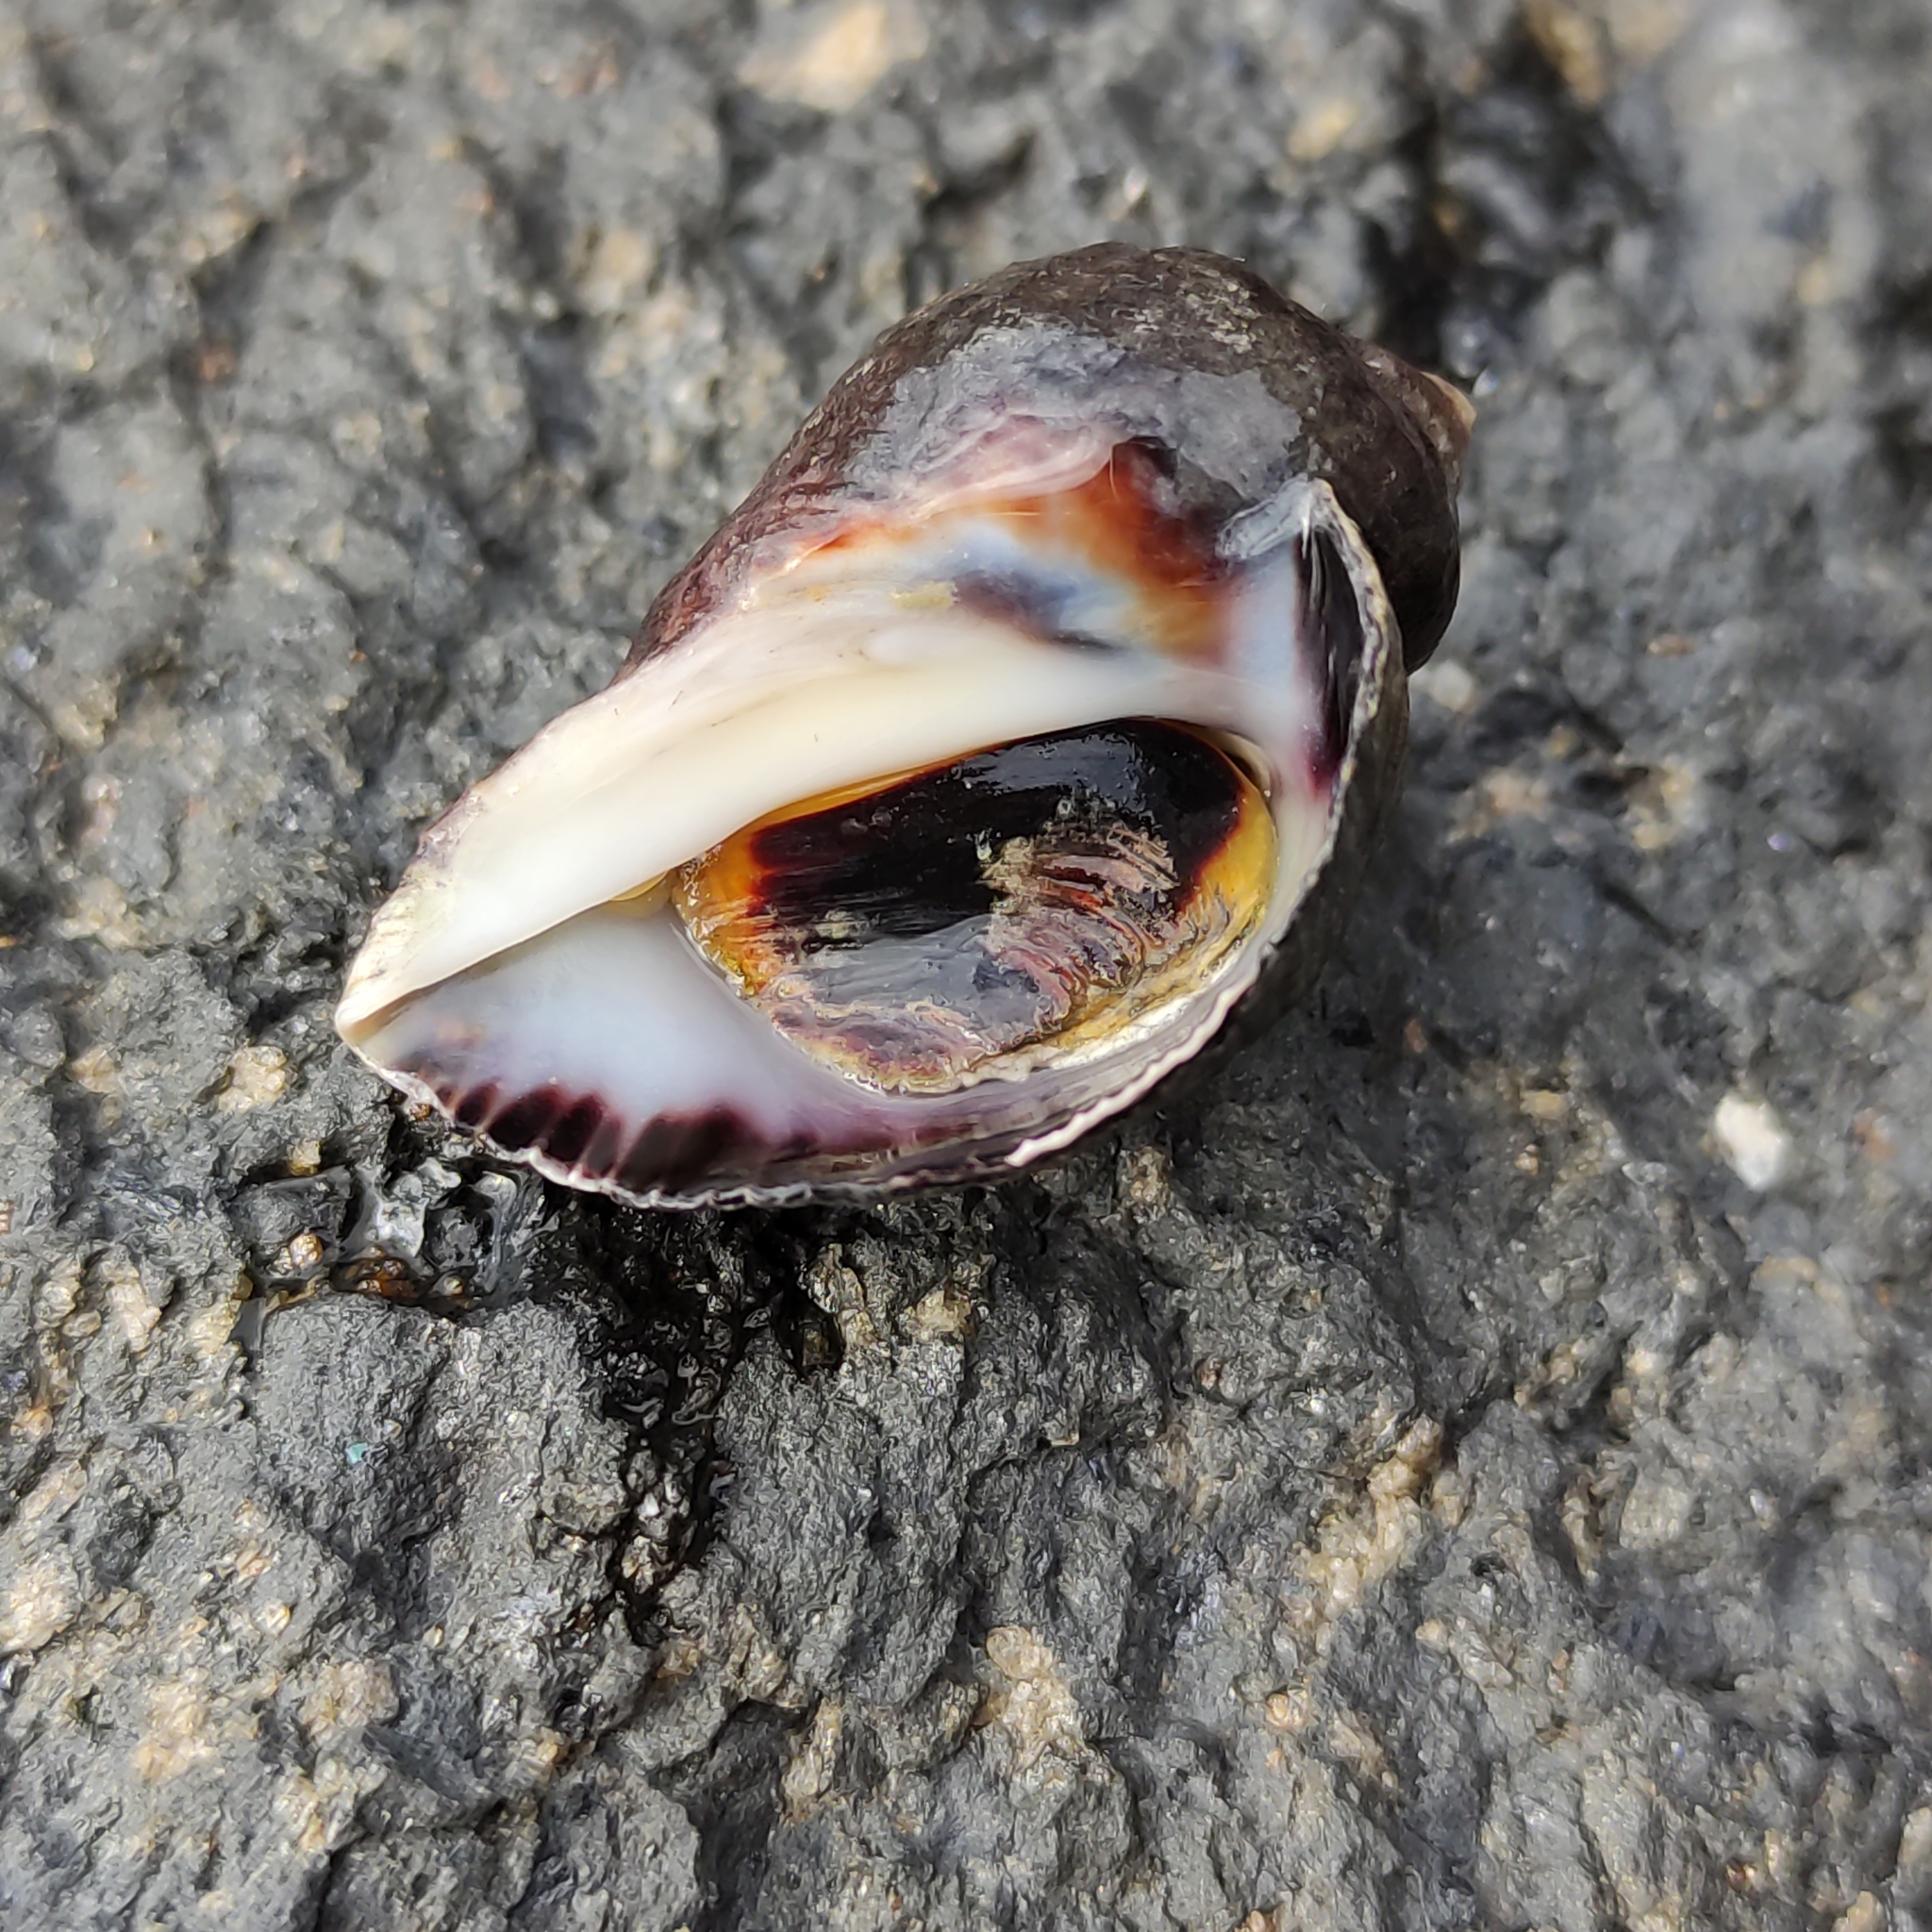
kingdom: Animalia
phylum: Mollusca
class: Gastropoda
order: Neogastropoda
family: Muricidae
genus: Haustrum
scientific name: Haustrum haustorium
